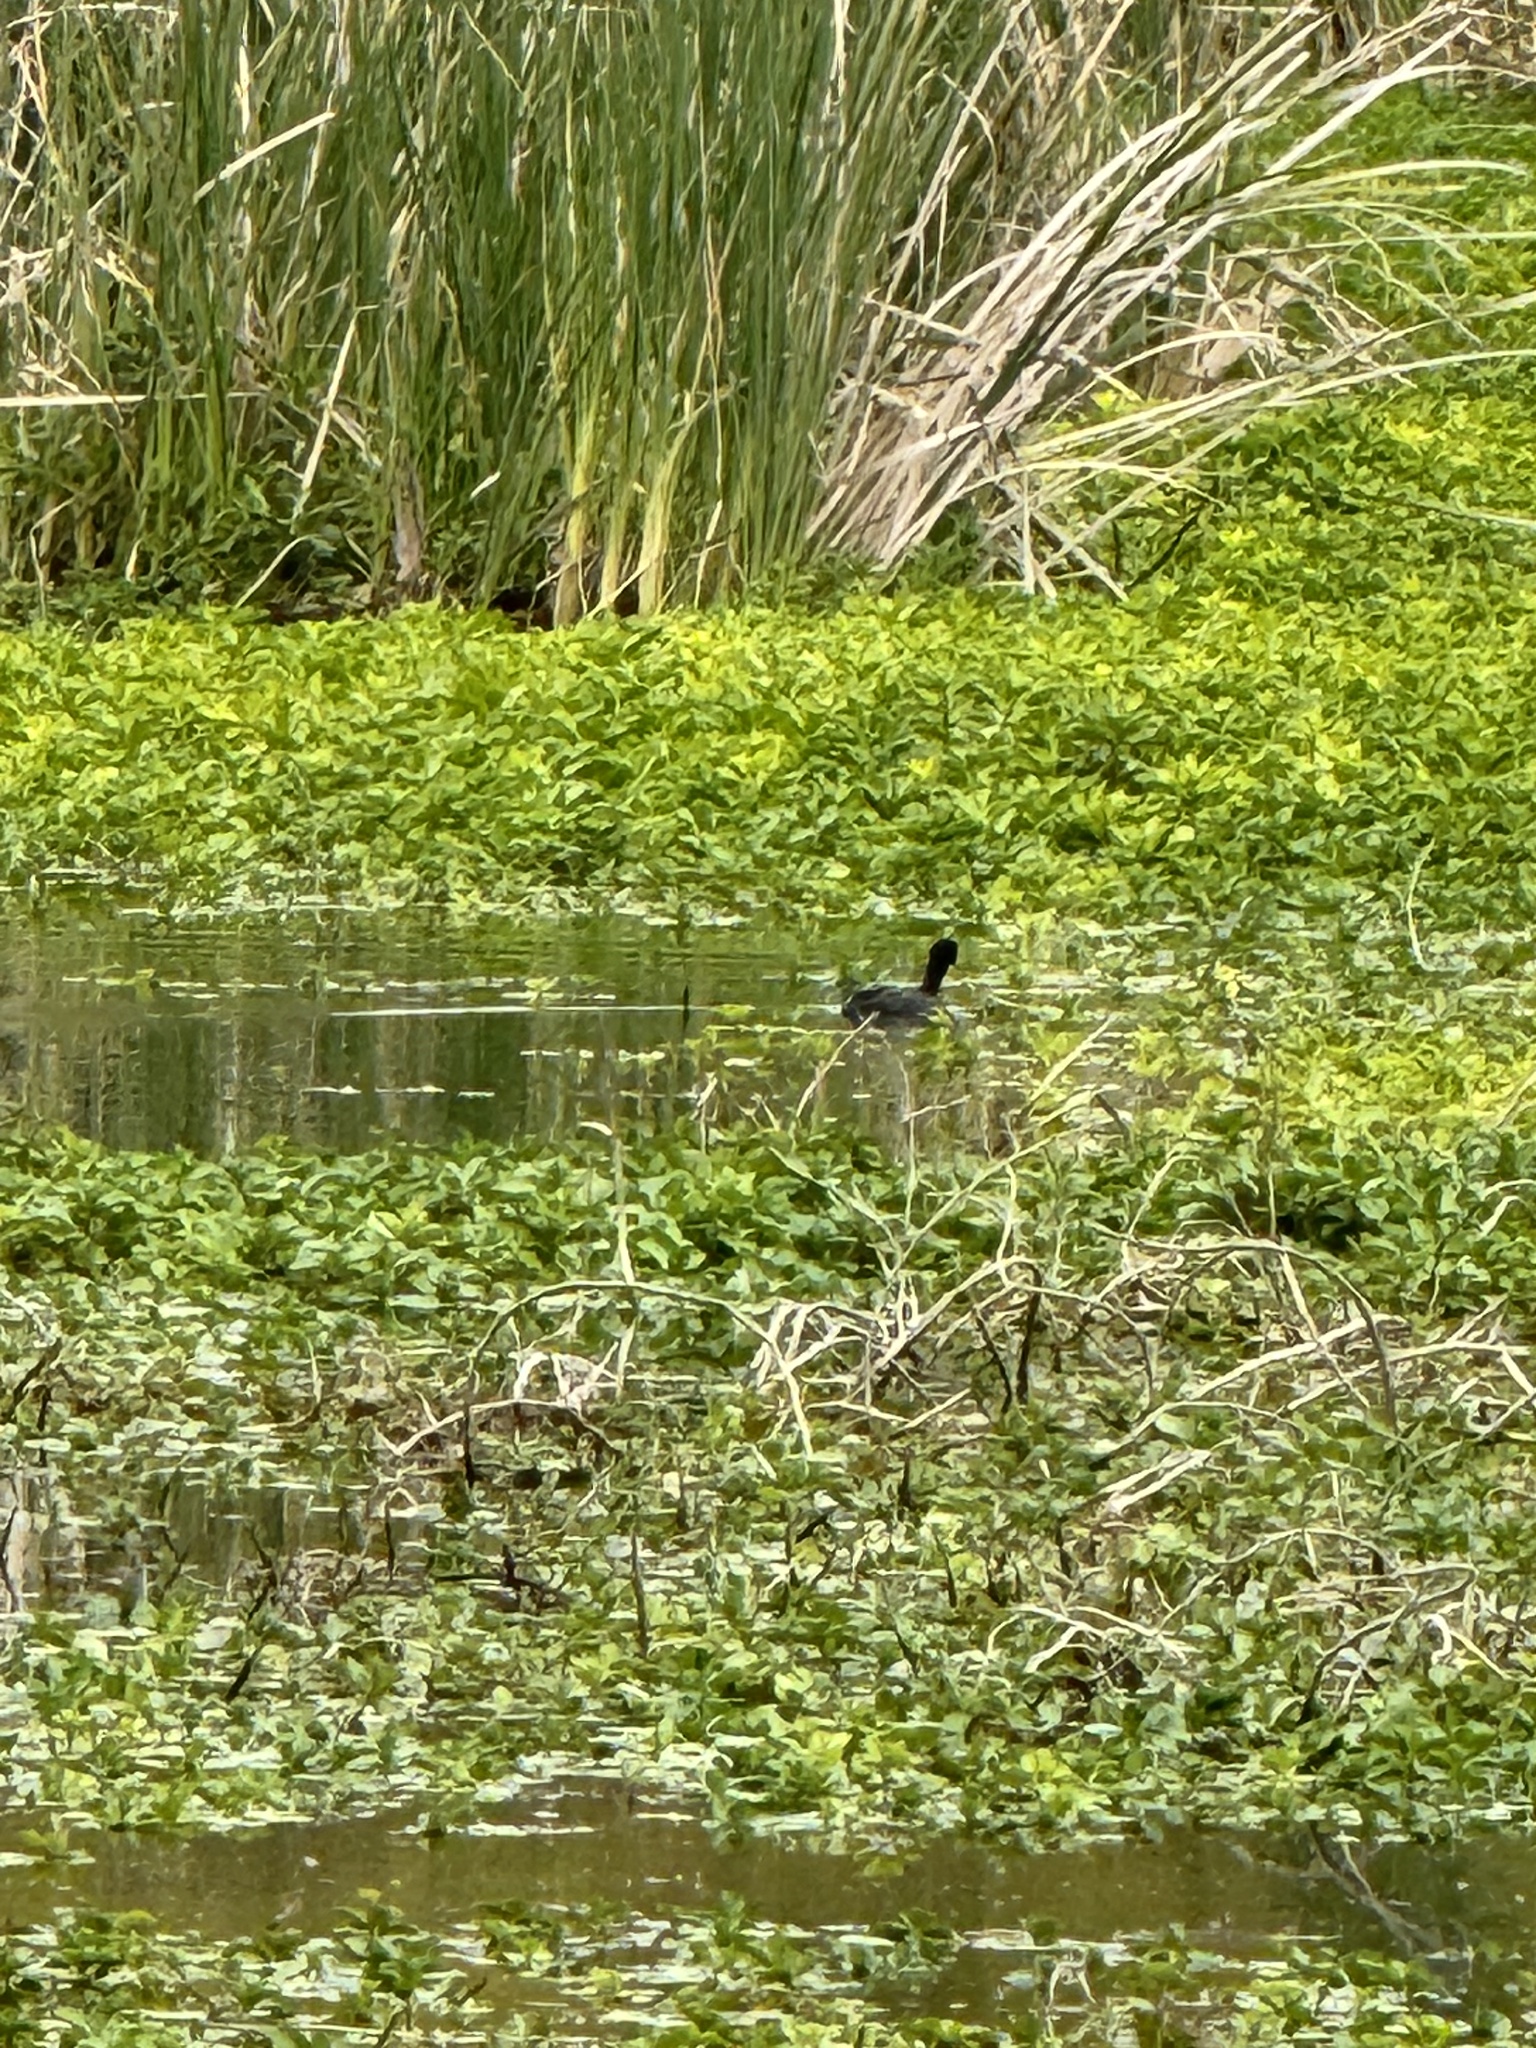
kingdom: Animalia
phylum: Chordata
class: Aves
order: Gruiformes
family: Rallidae
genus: Fulica
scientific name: Fulica americana
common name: American coot
